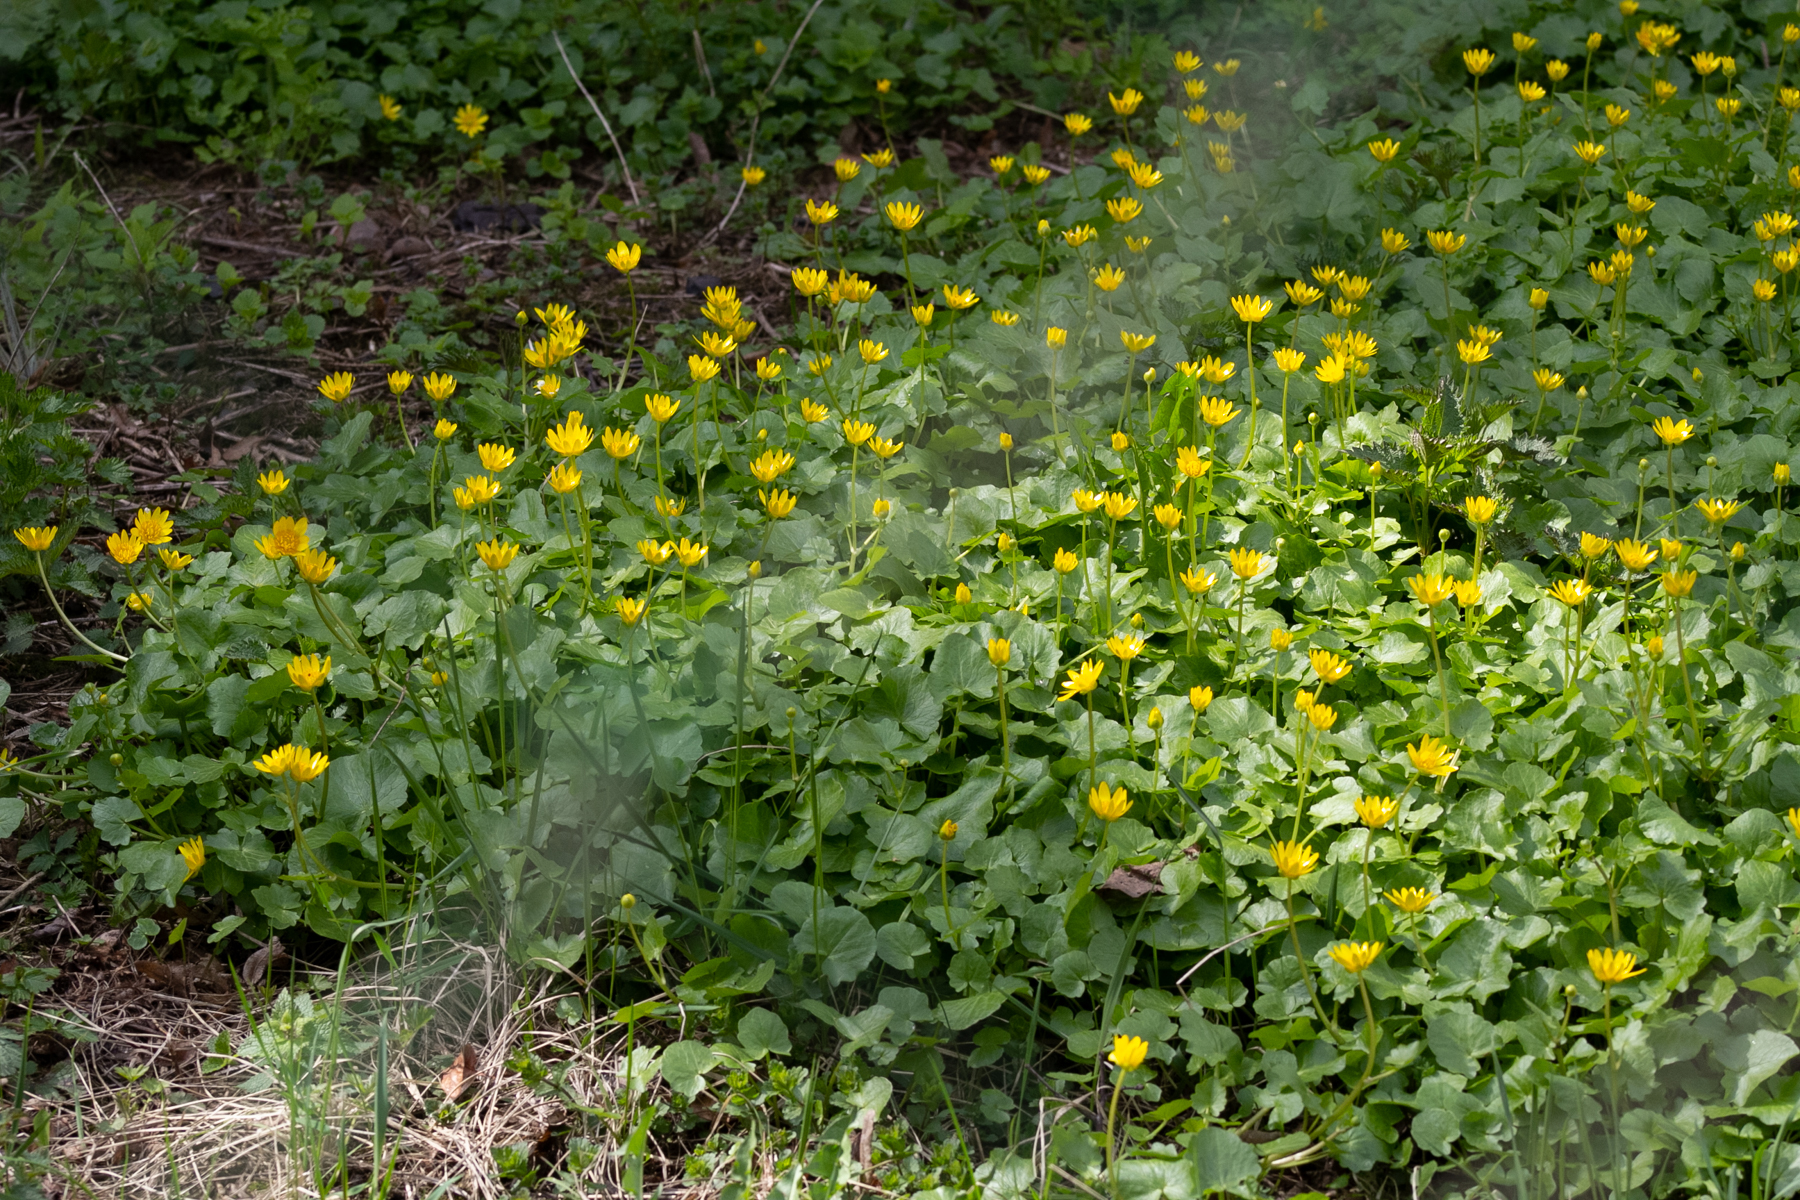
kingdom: Plantae
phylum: Tracheophyta
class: Magnoliopsida
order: Ranunculales
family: Ranunculaceae
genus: Ficaria
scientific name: Ficaria verna
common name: Lesser celandine
